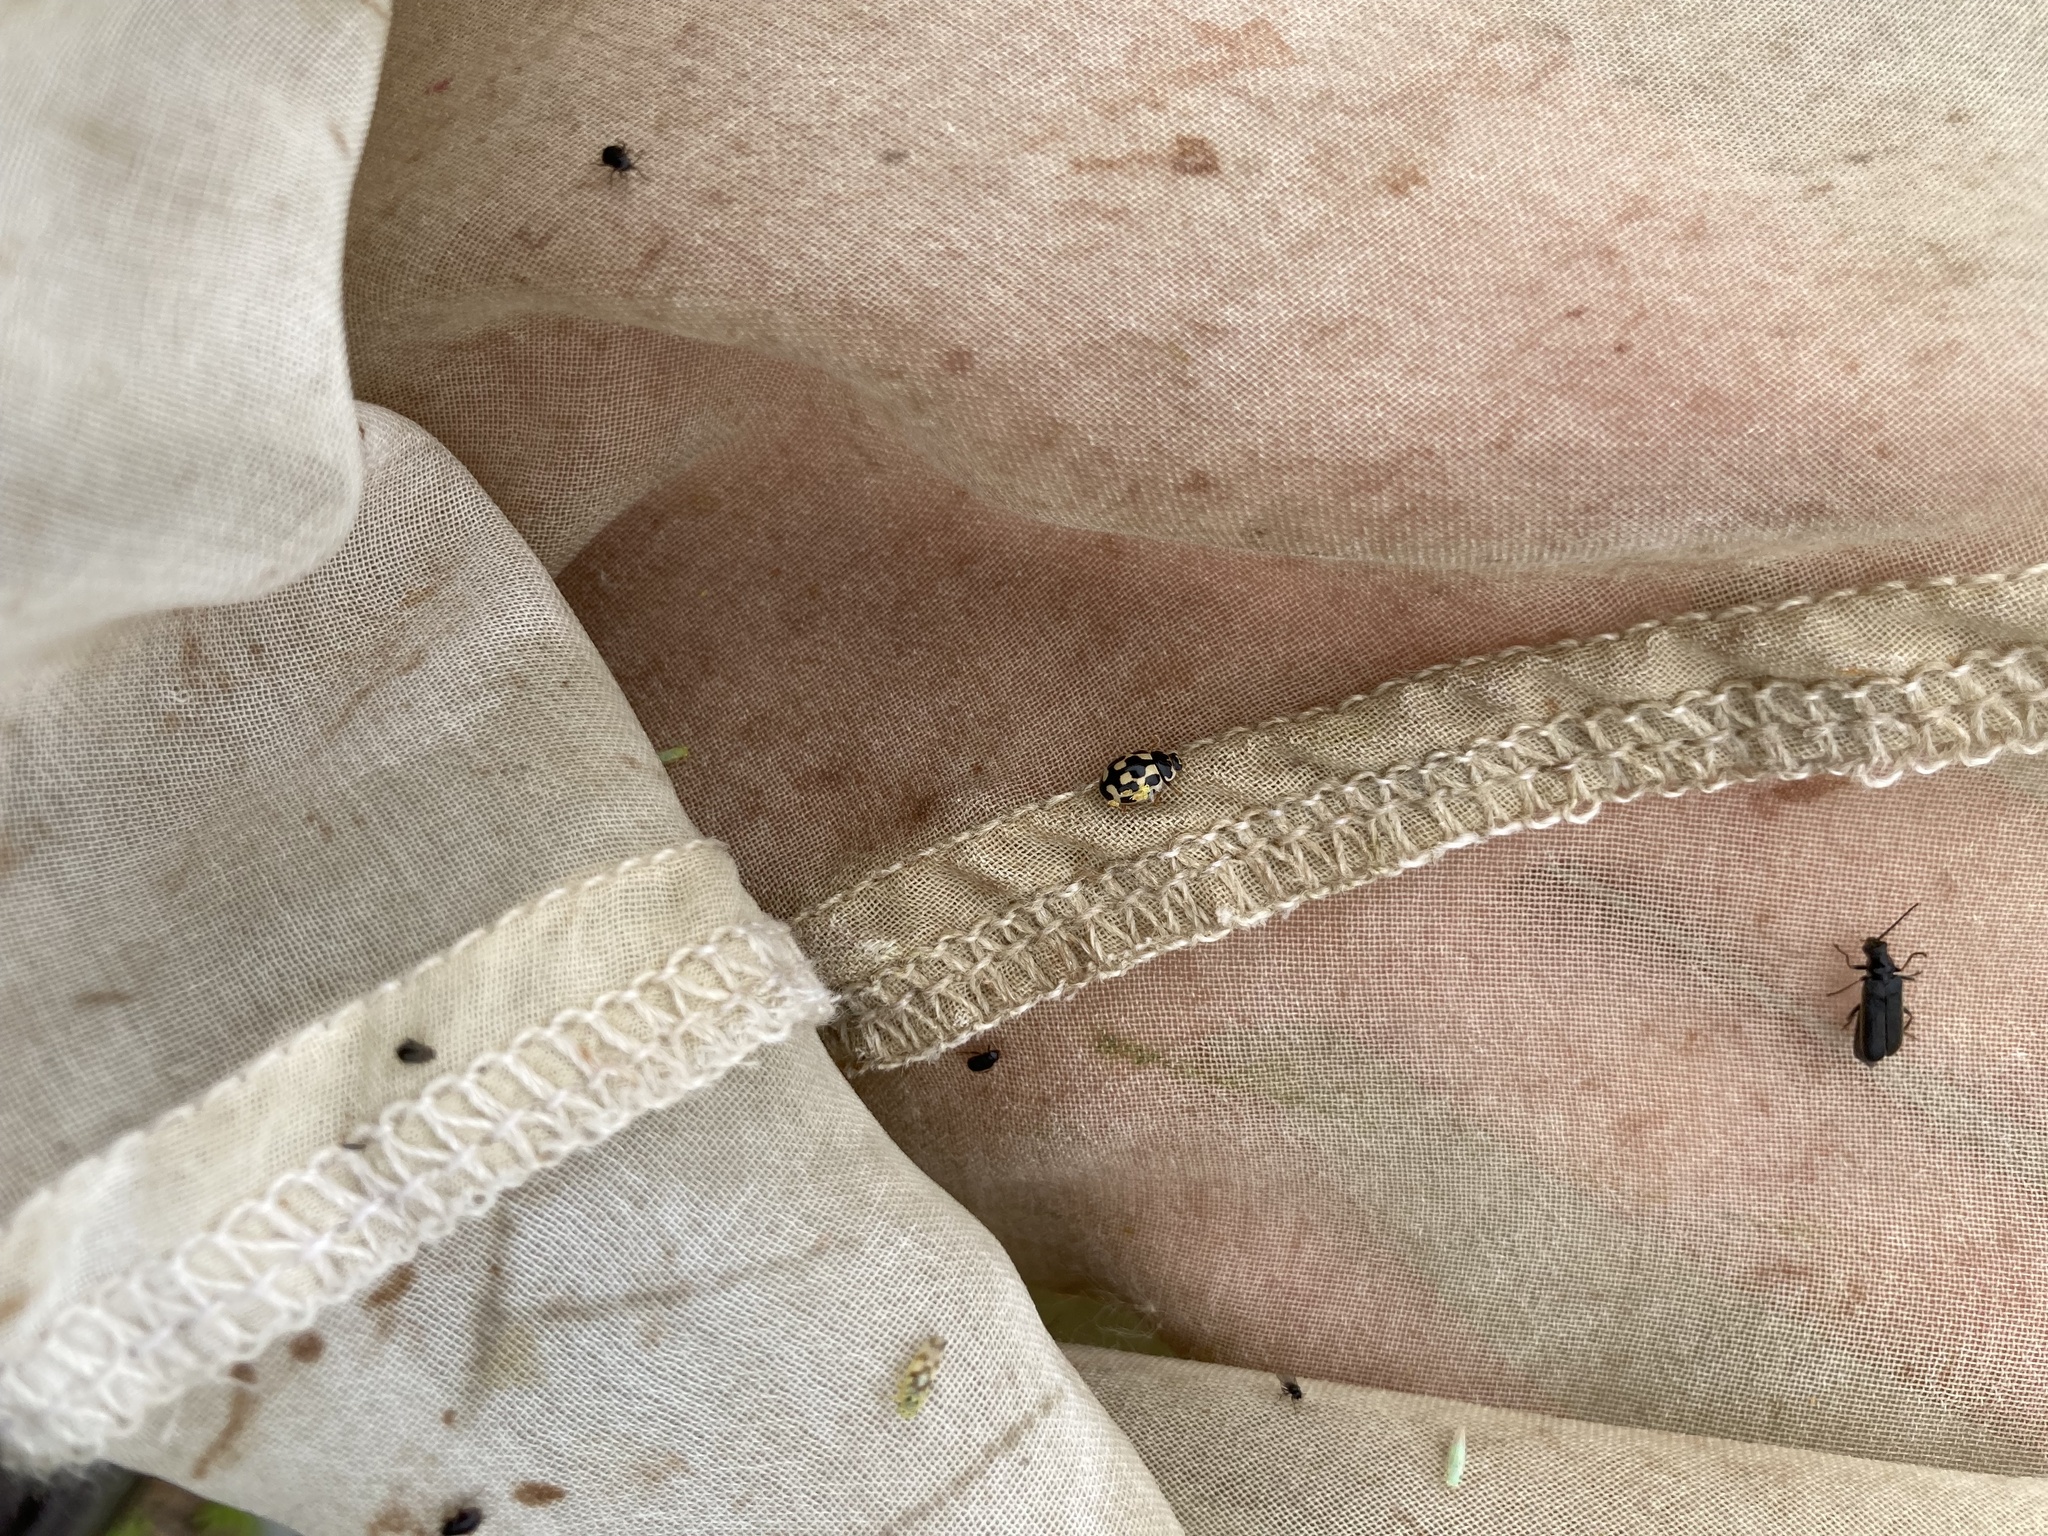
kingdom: Animalia
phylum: Arthropoda
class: Insecta
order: Coleoptera
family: Coccinellidae
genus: Propylaea
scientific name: Propylaea quatuordecimpunctata
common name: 14-spotted ladybird beetle
